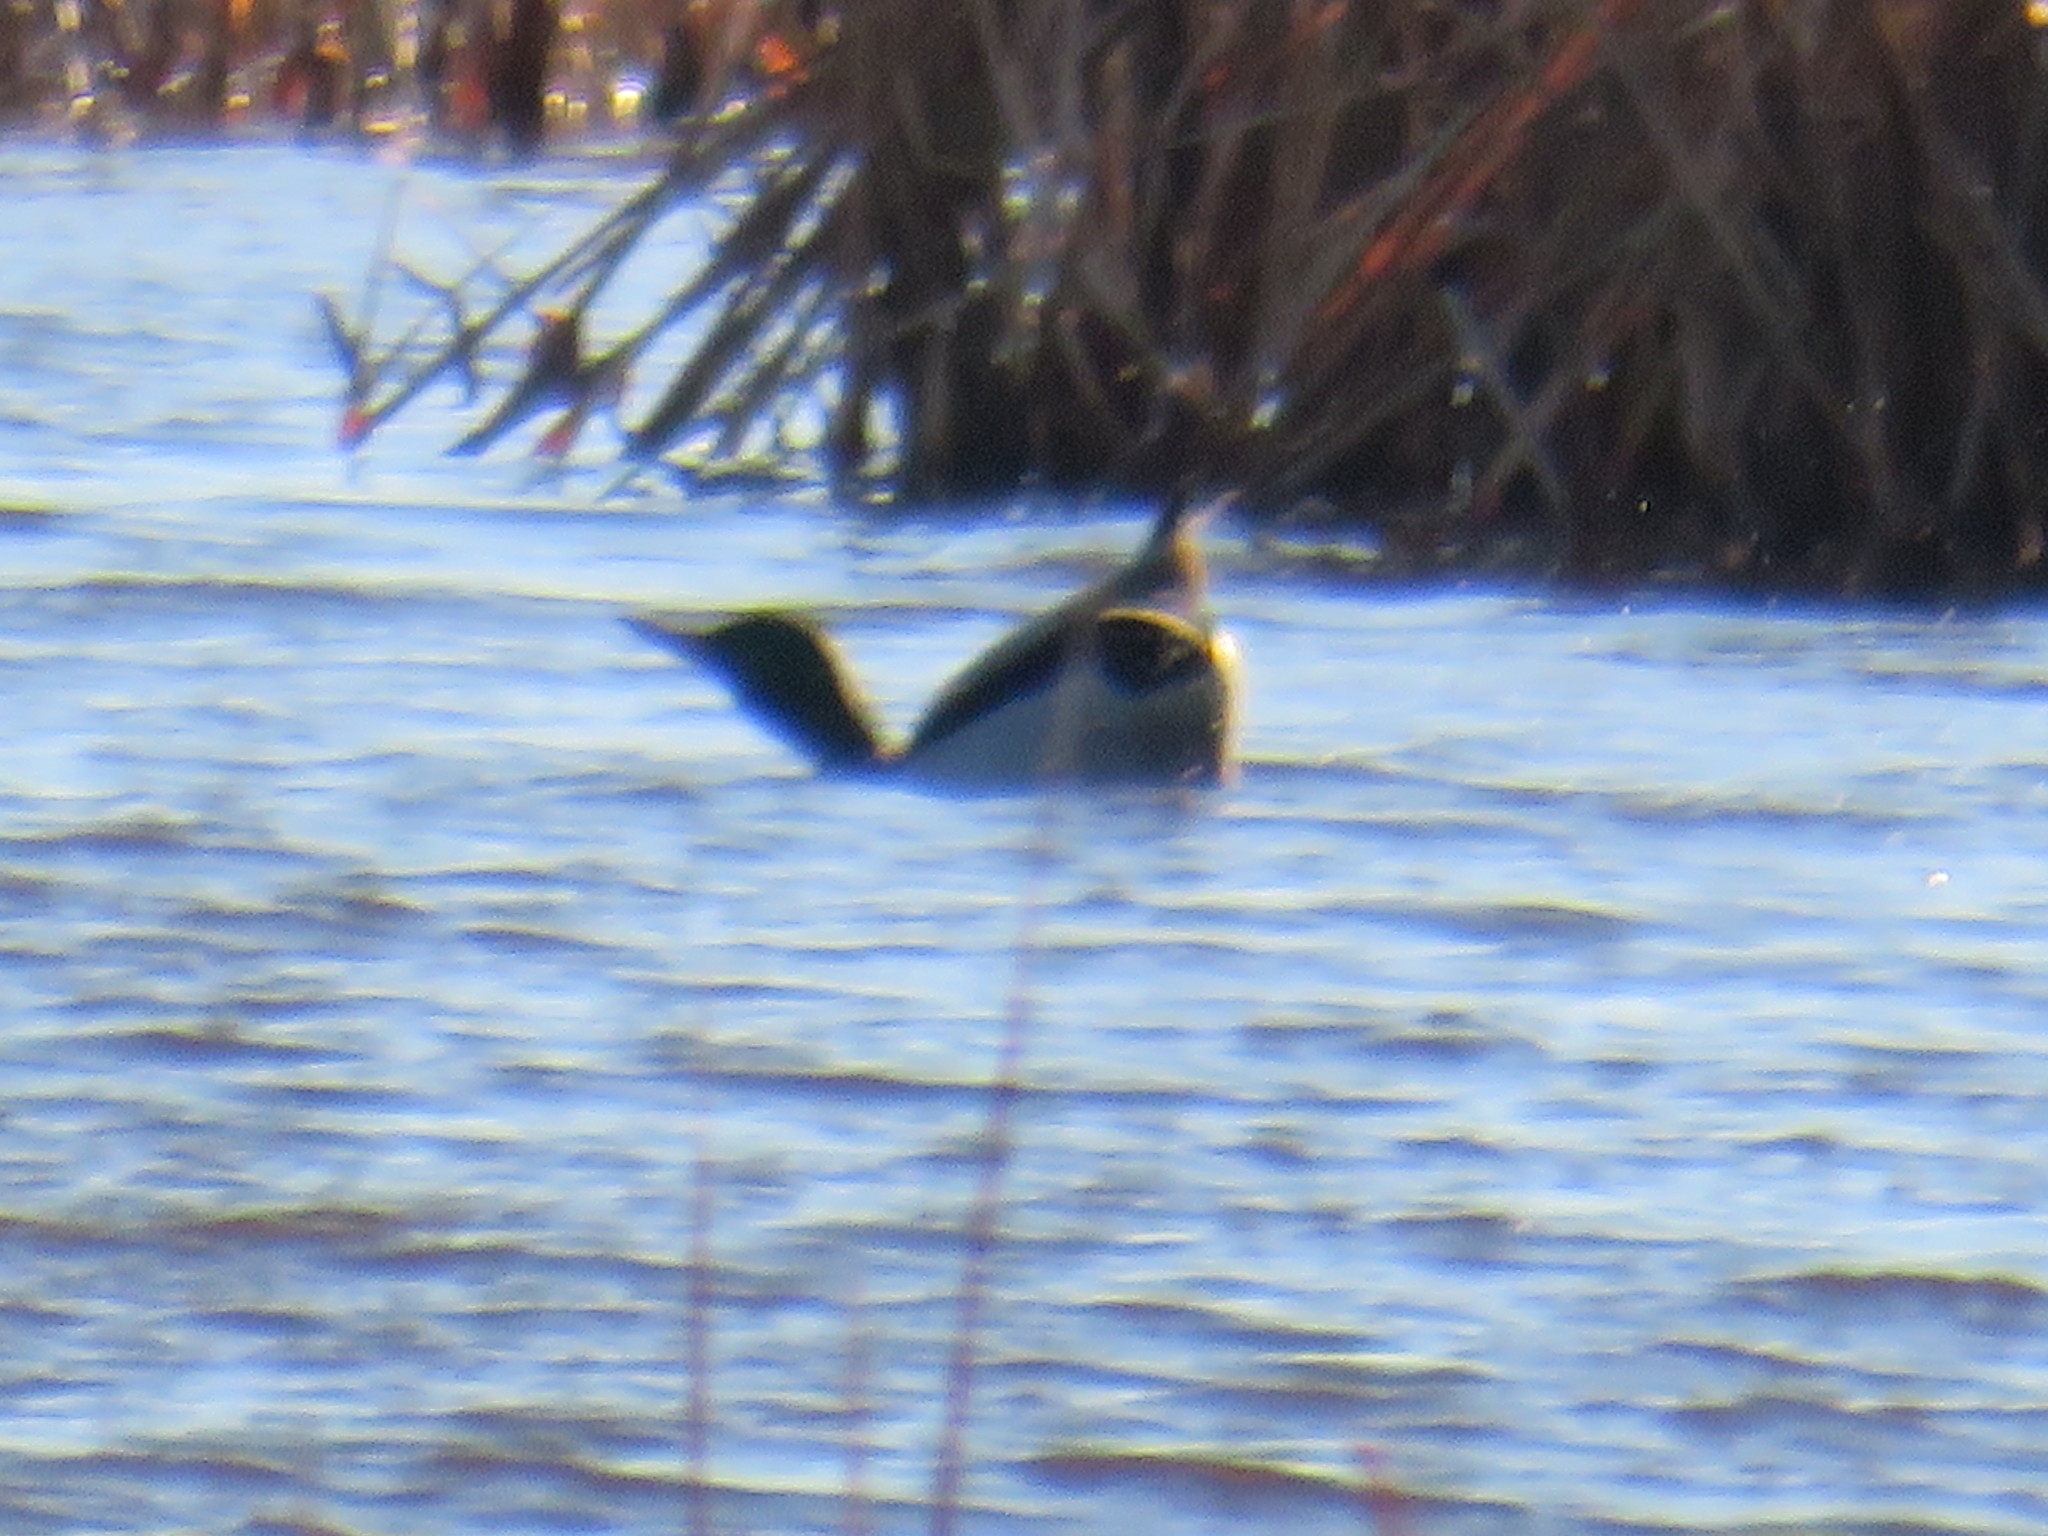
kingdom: Animalia
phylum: Chordata
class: Aves
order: Anseriformes
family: Anatidae
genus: Anas
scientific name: Anas platyrhynchos
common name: Mallard
